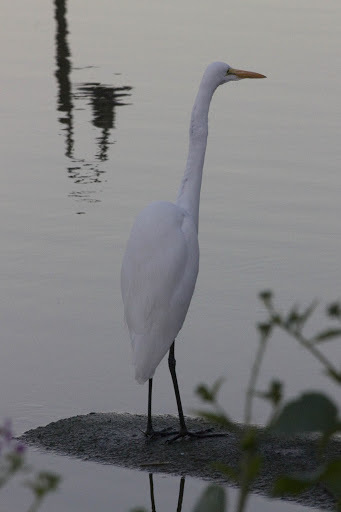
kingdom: Animalia
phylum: Chordata
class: Aves
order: Pelecaniformes
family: Ardeidae
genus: Ardea
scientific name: Ardea alba
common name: Great egret
